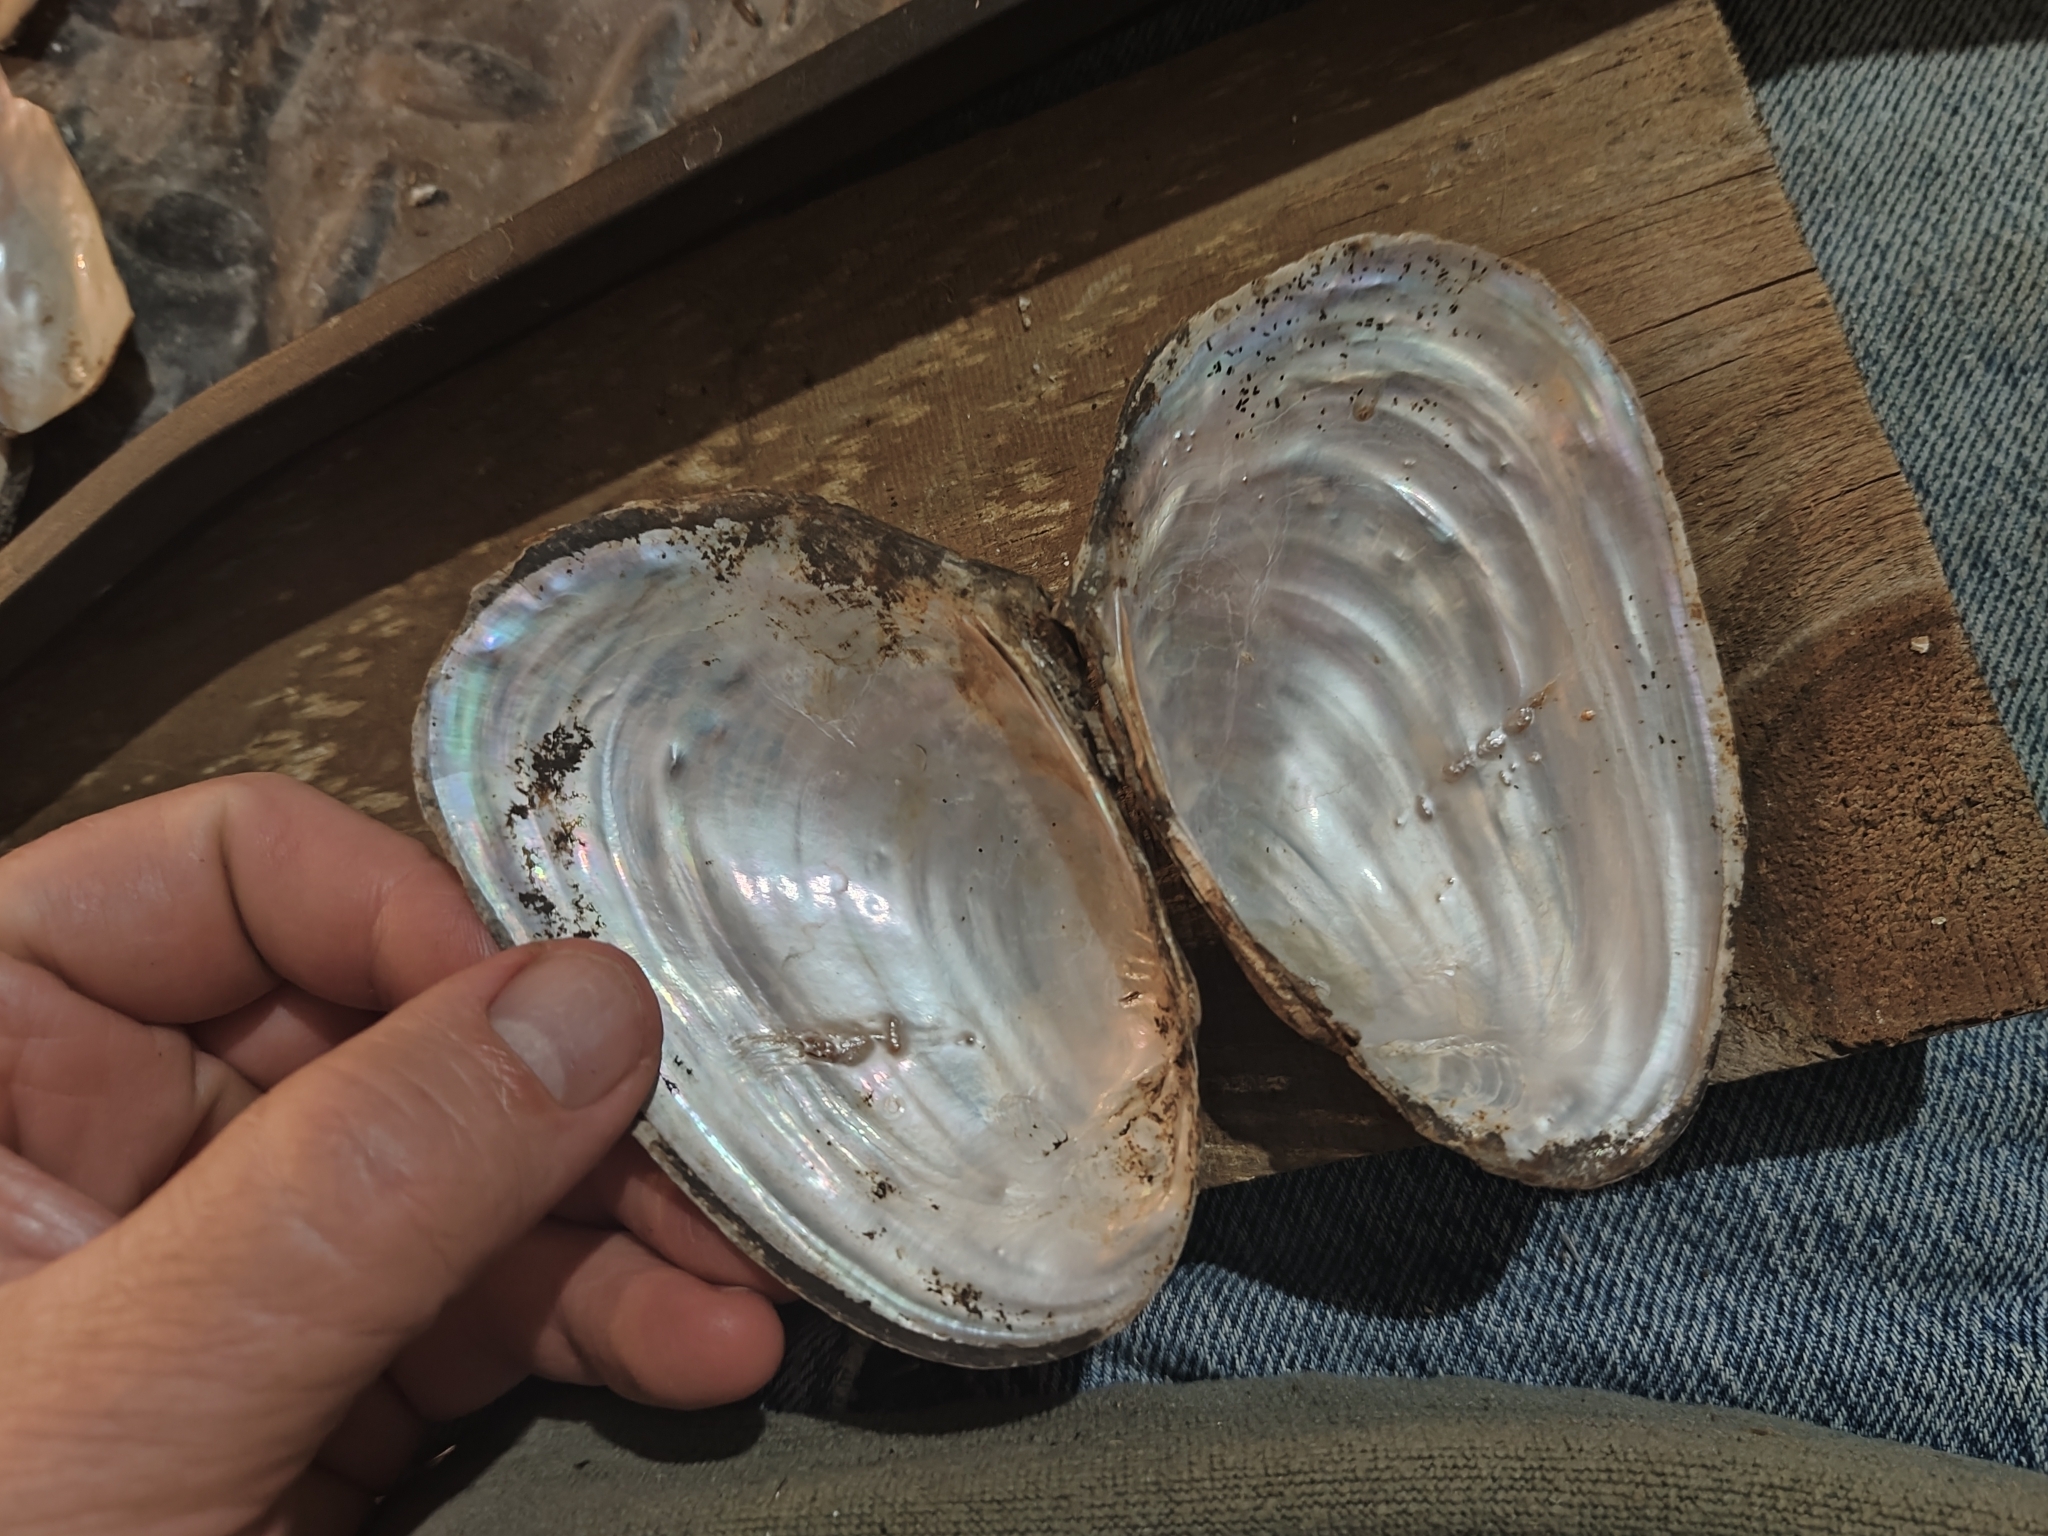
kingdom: Animalia
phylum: Mollusca
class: Bivalvia
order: Unionida
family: Unionidae
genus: Potamilus
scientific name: Potamilus fragilis
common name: Fragile papershell
